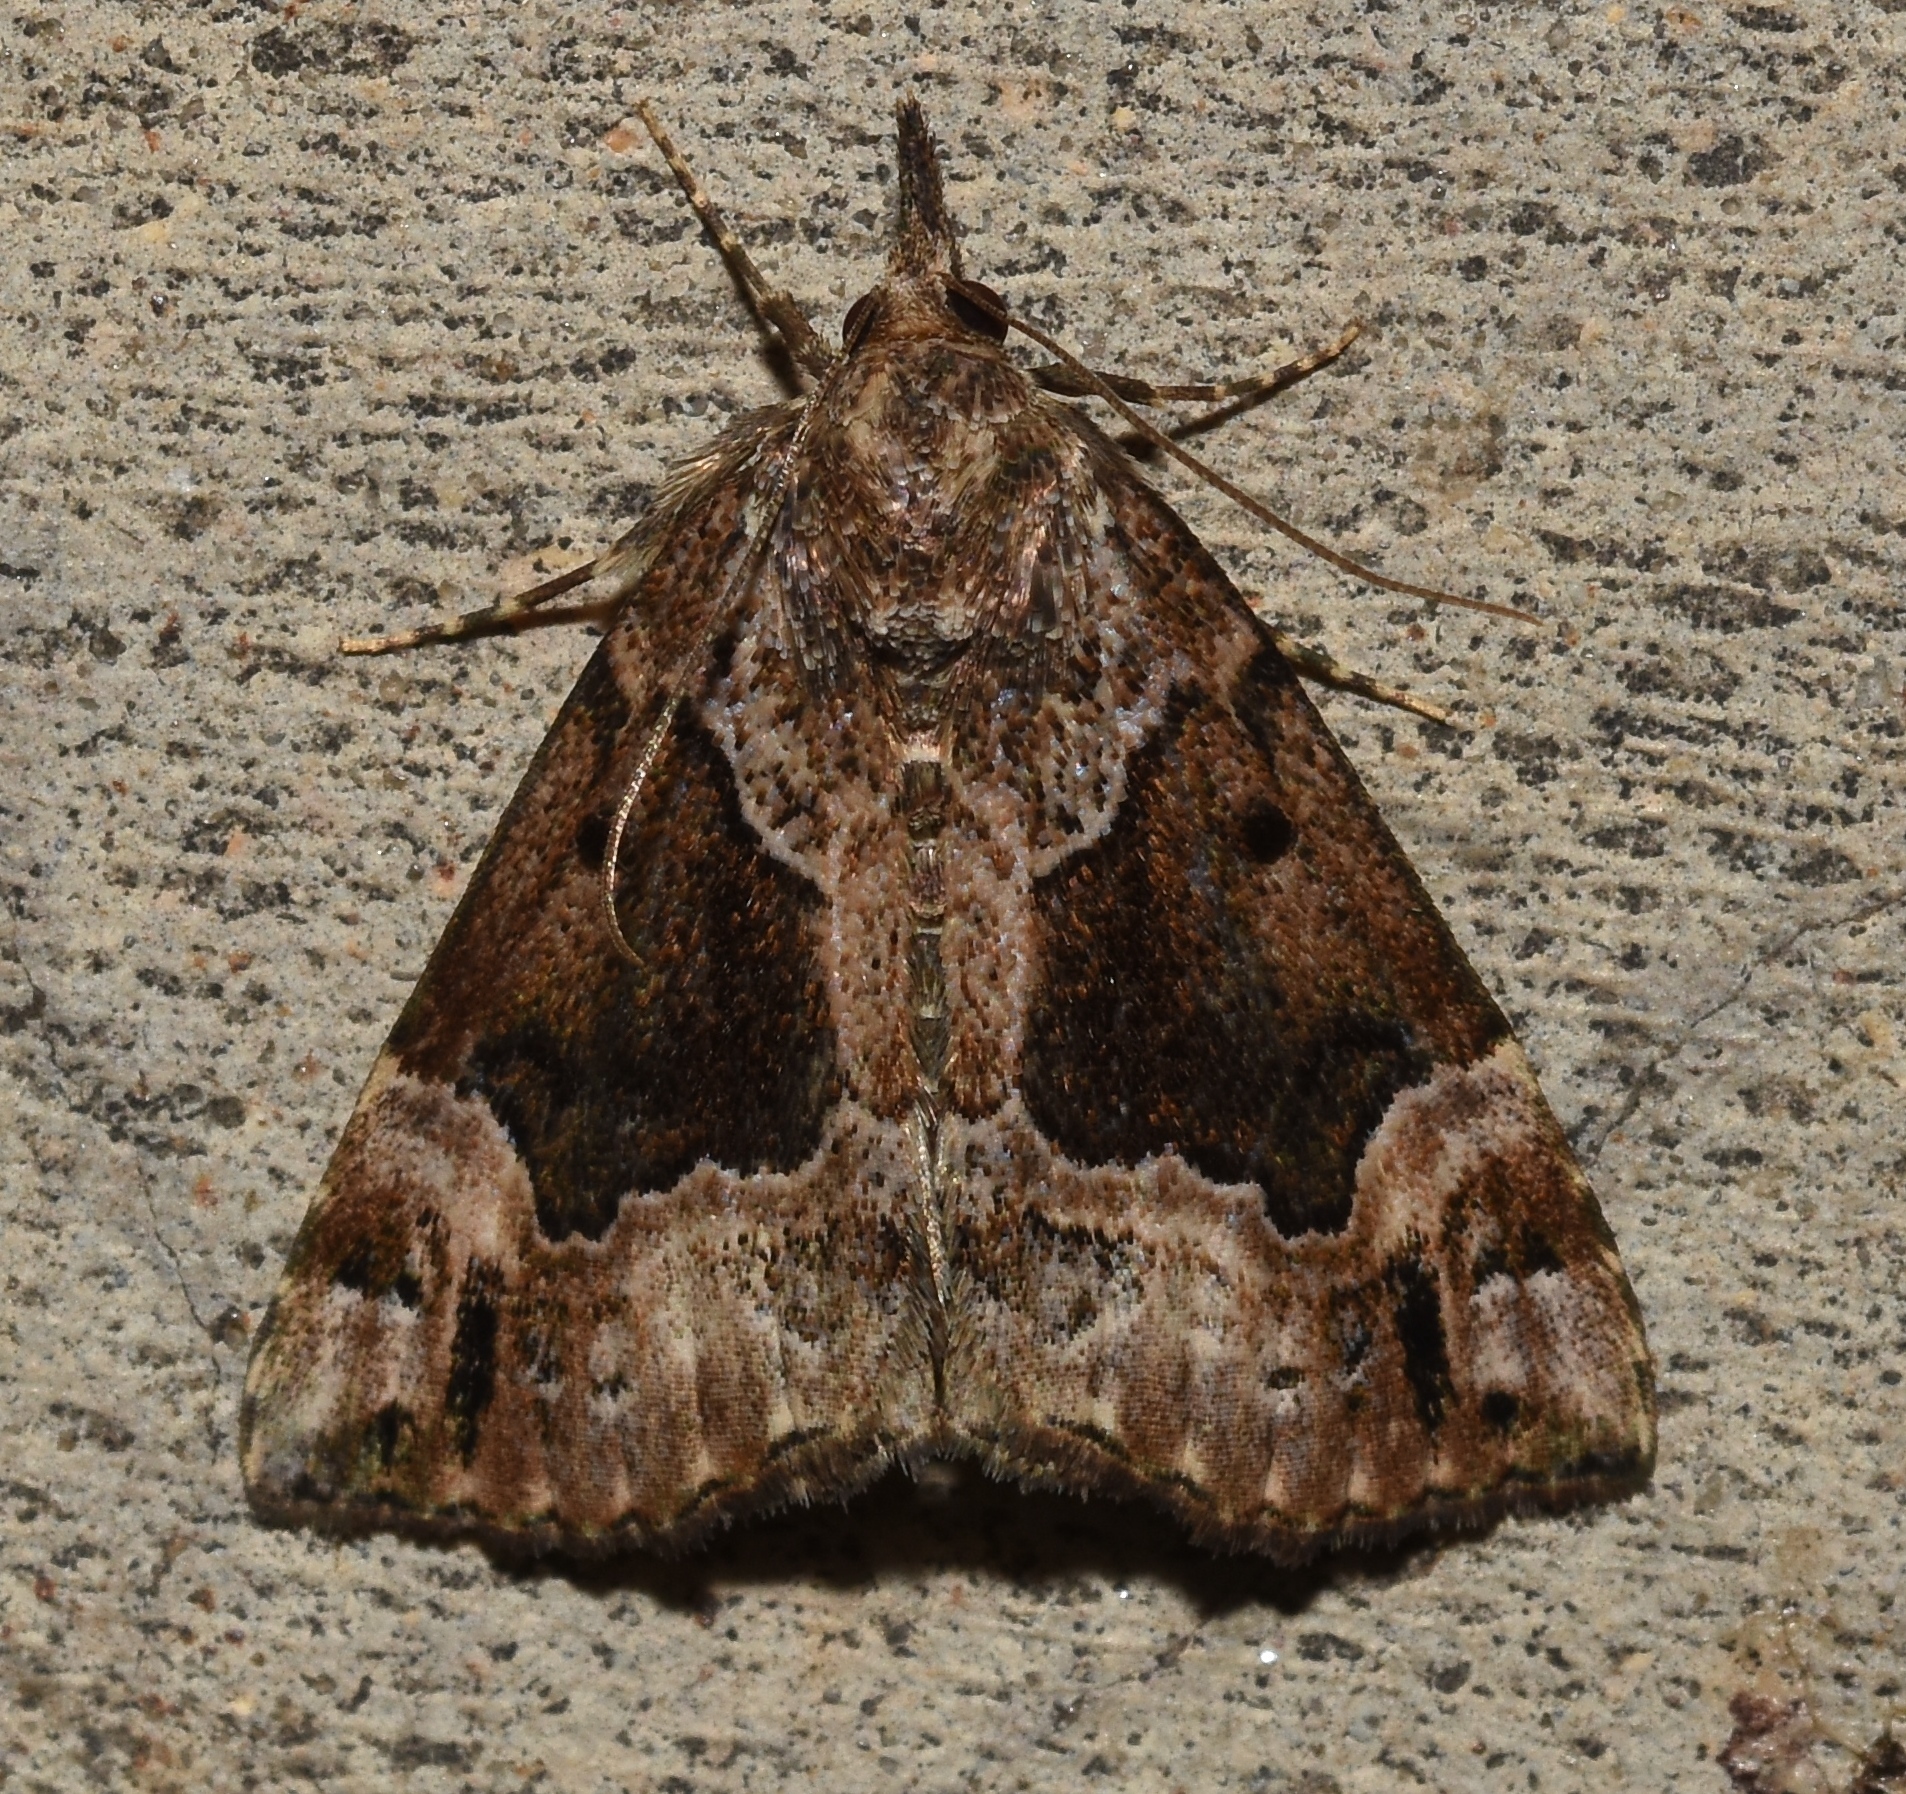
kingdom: Animalia
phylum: Arthropoda
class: Insecta
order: Lepidoptera
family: Erebidae
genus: Hypena
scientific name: Hypena palparia
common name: Mottled bomolocha moth
